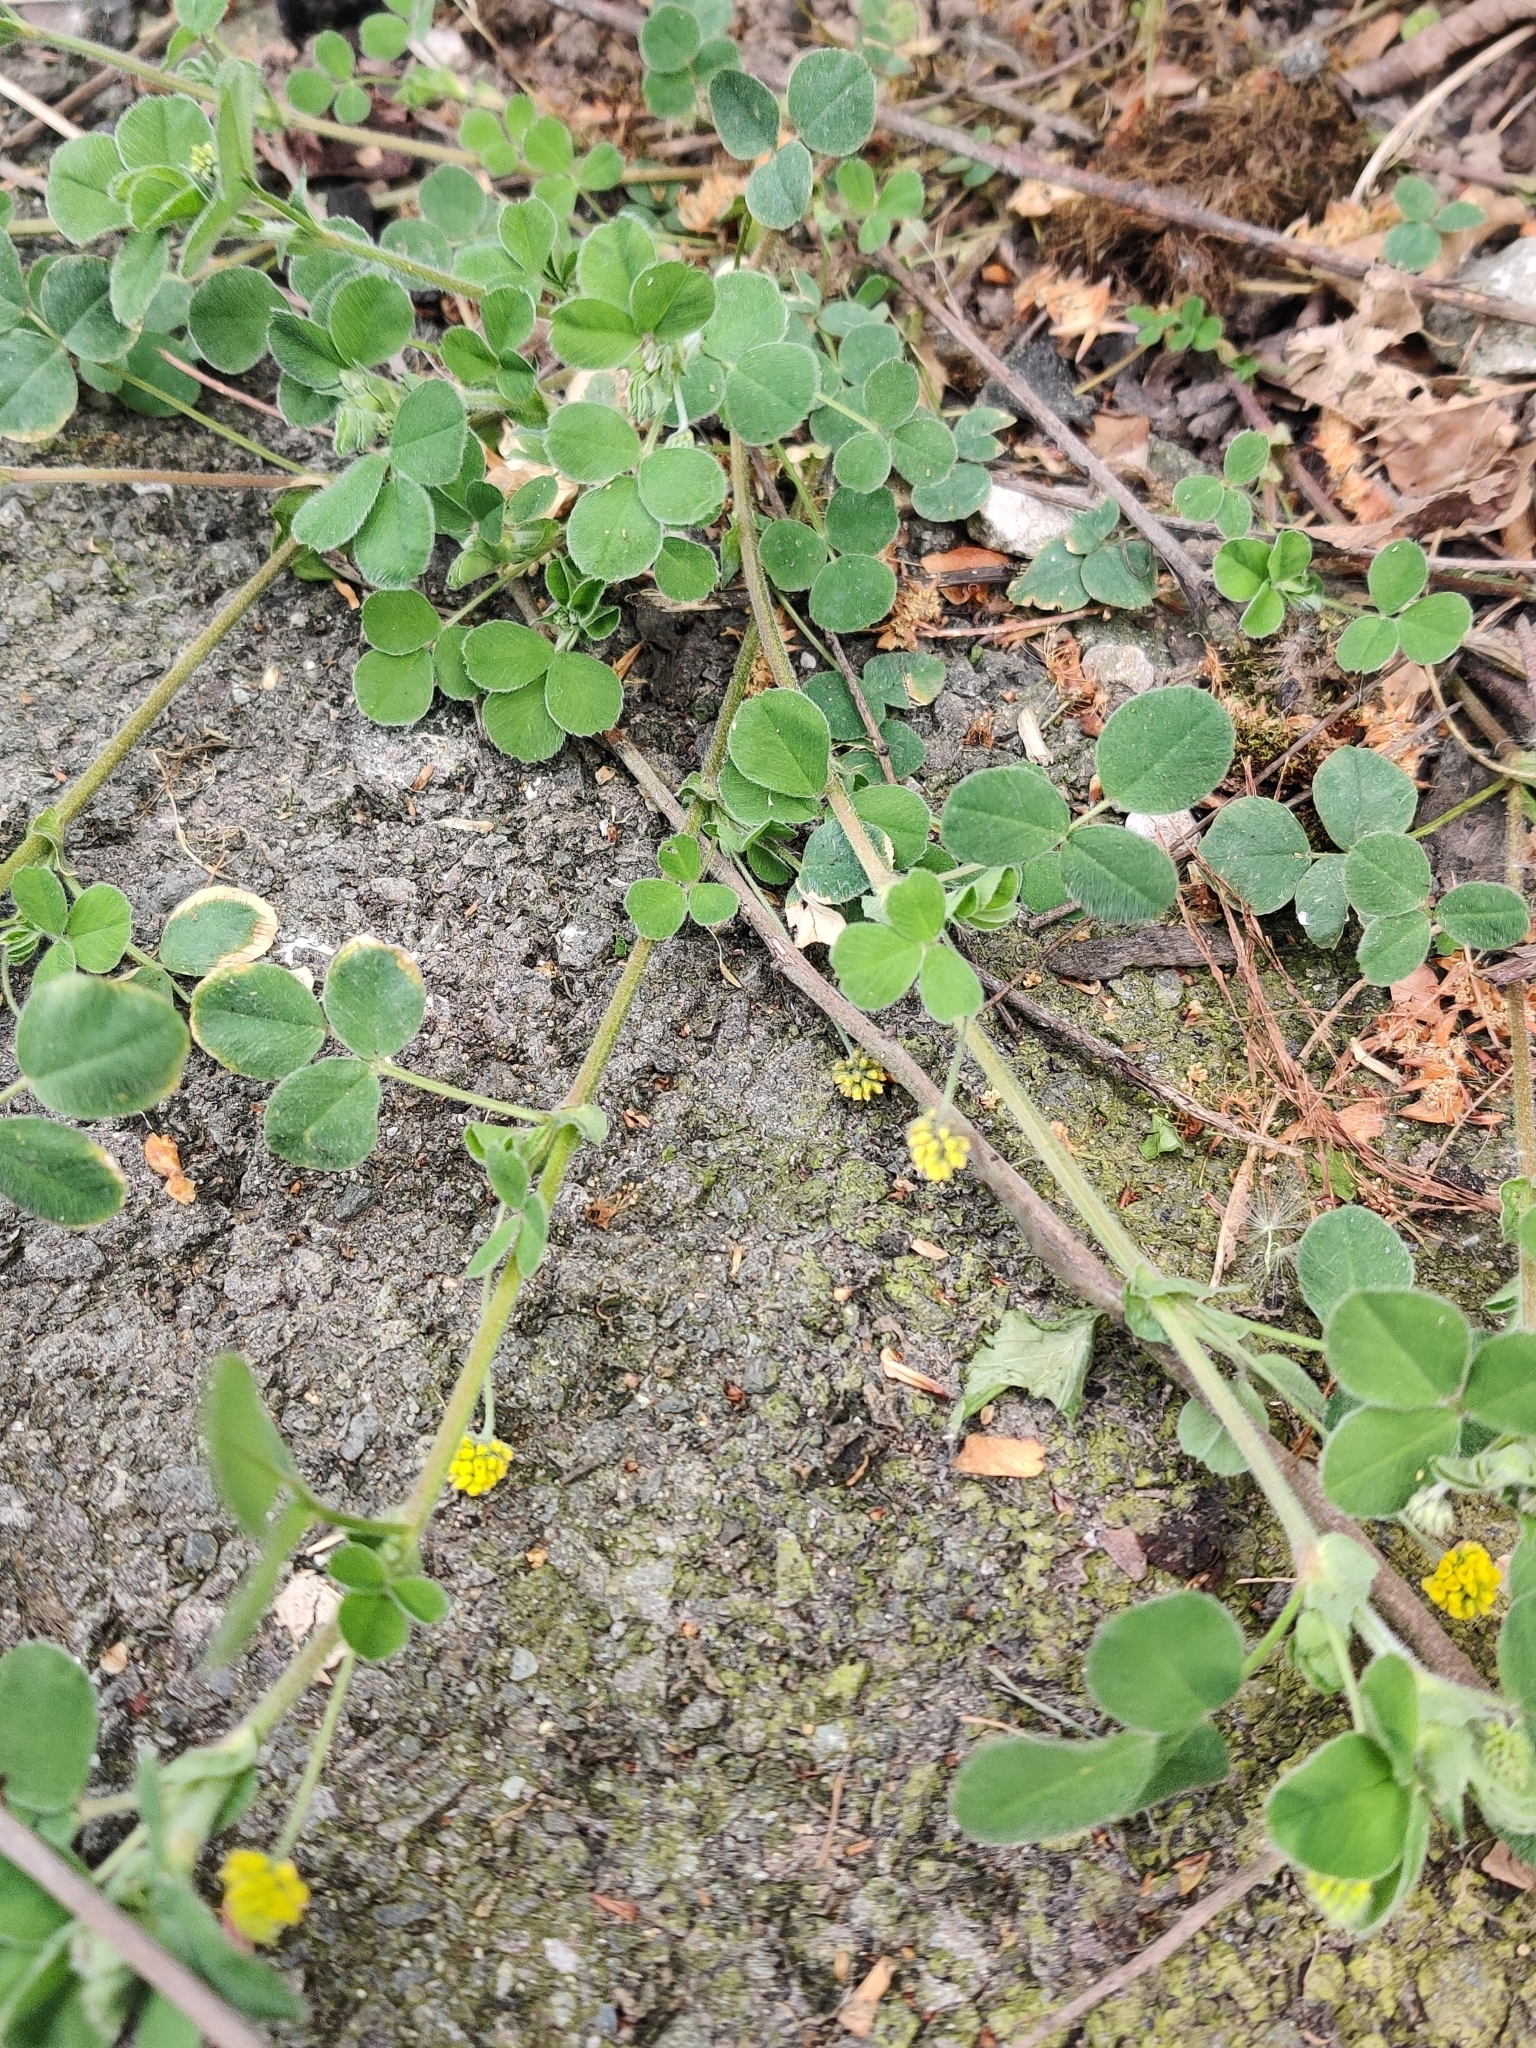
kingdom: Plantae
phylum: Tracheophyta
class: Magnoliopsida
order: Fabales
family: Fabaceae
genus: Medicago
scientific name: Medicago lupulina
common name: Black medick
